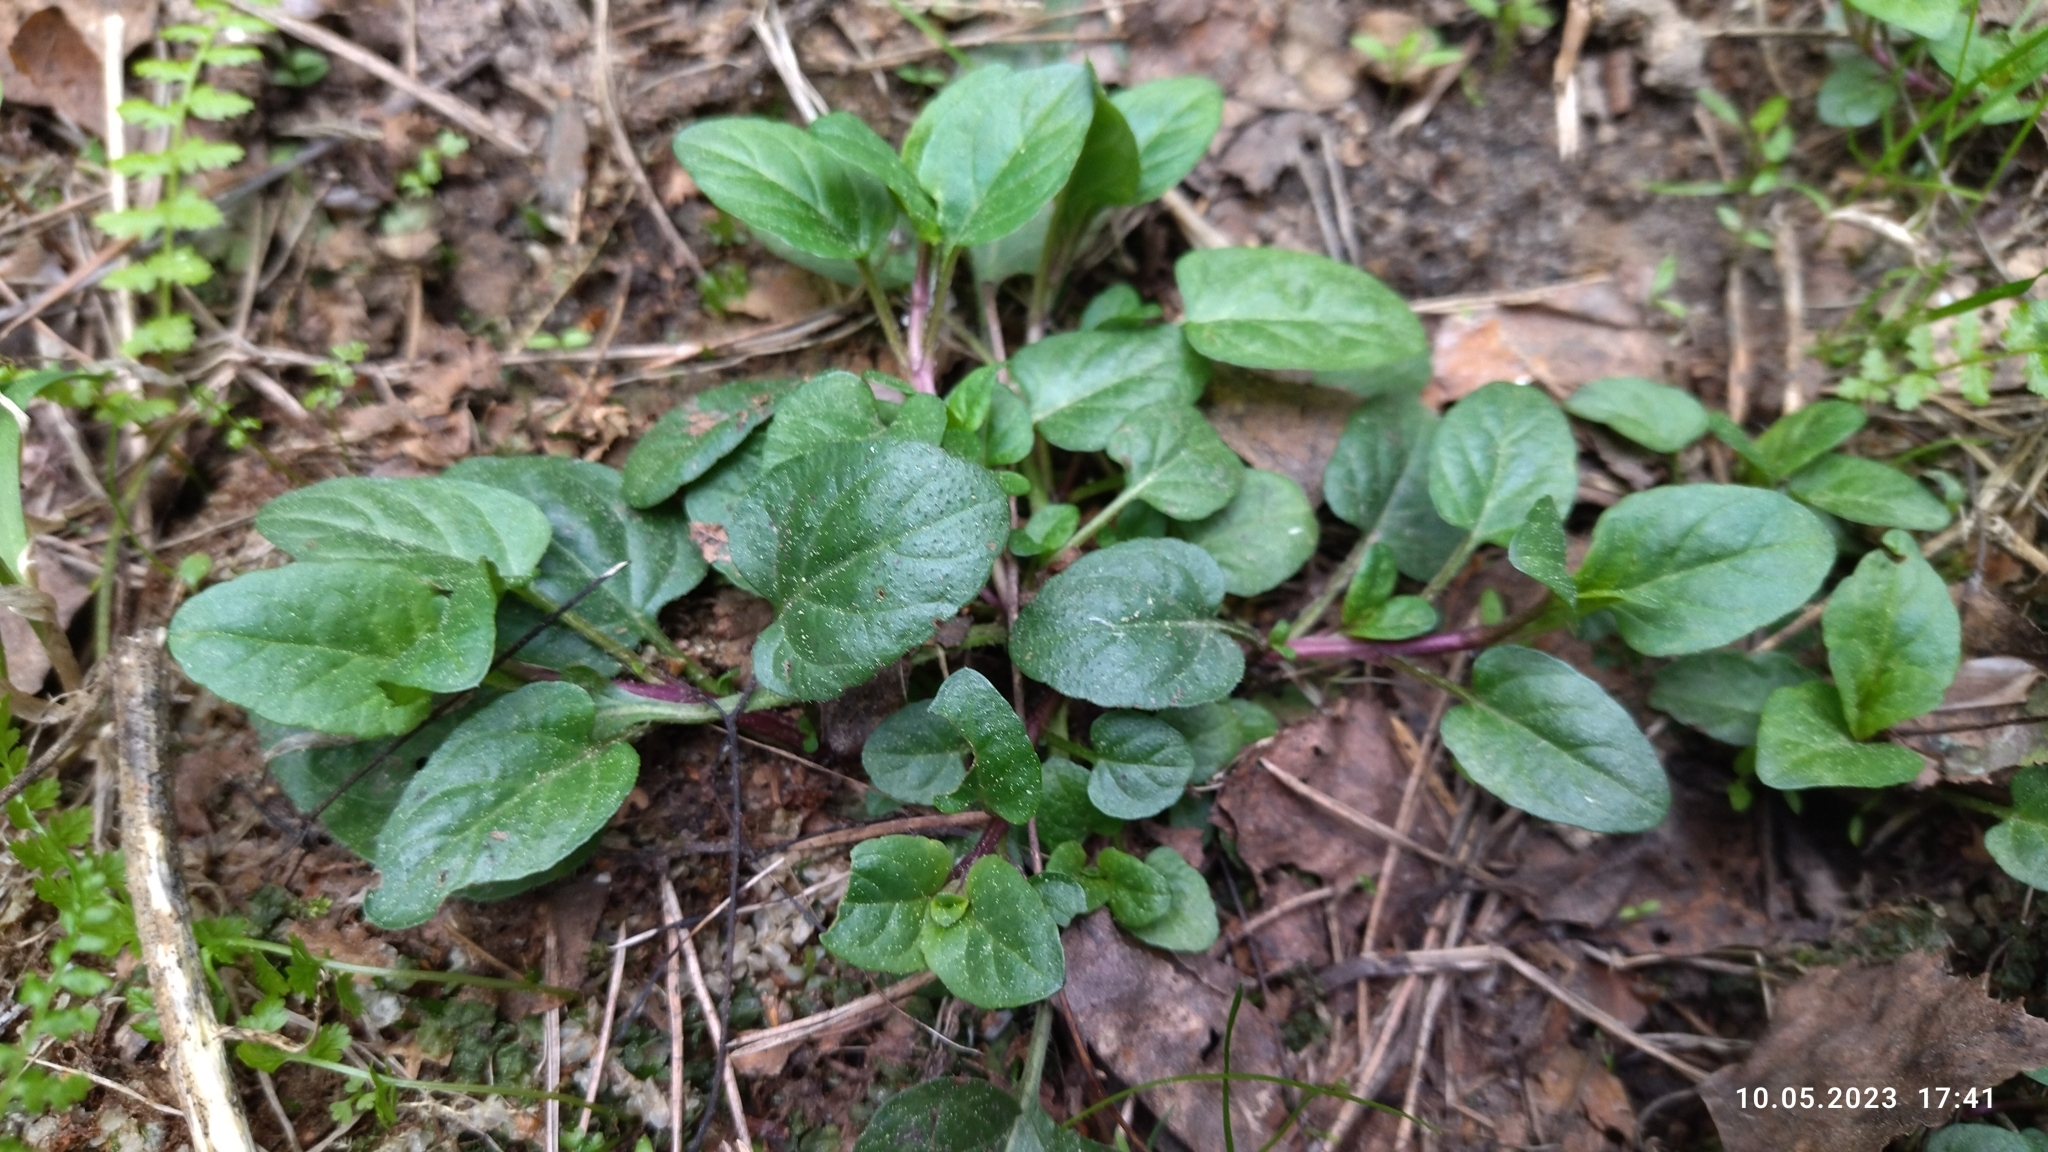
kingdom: Plantae
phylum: Tracheophyta
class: Magnoliopsida
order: Lamiales
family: Lamiaceae
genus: Prunella
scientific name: Prunella vulgaris
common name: Heal-all
